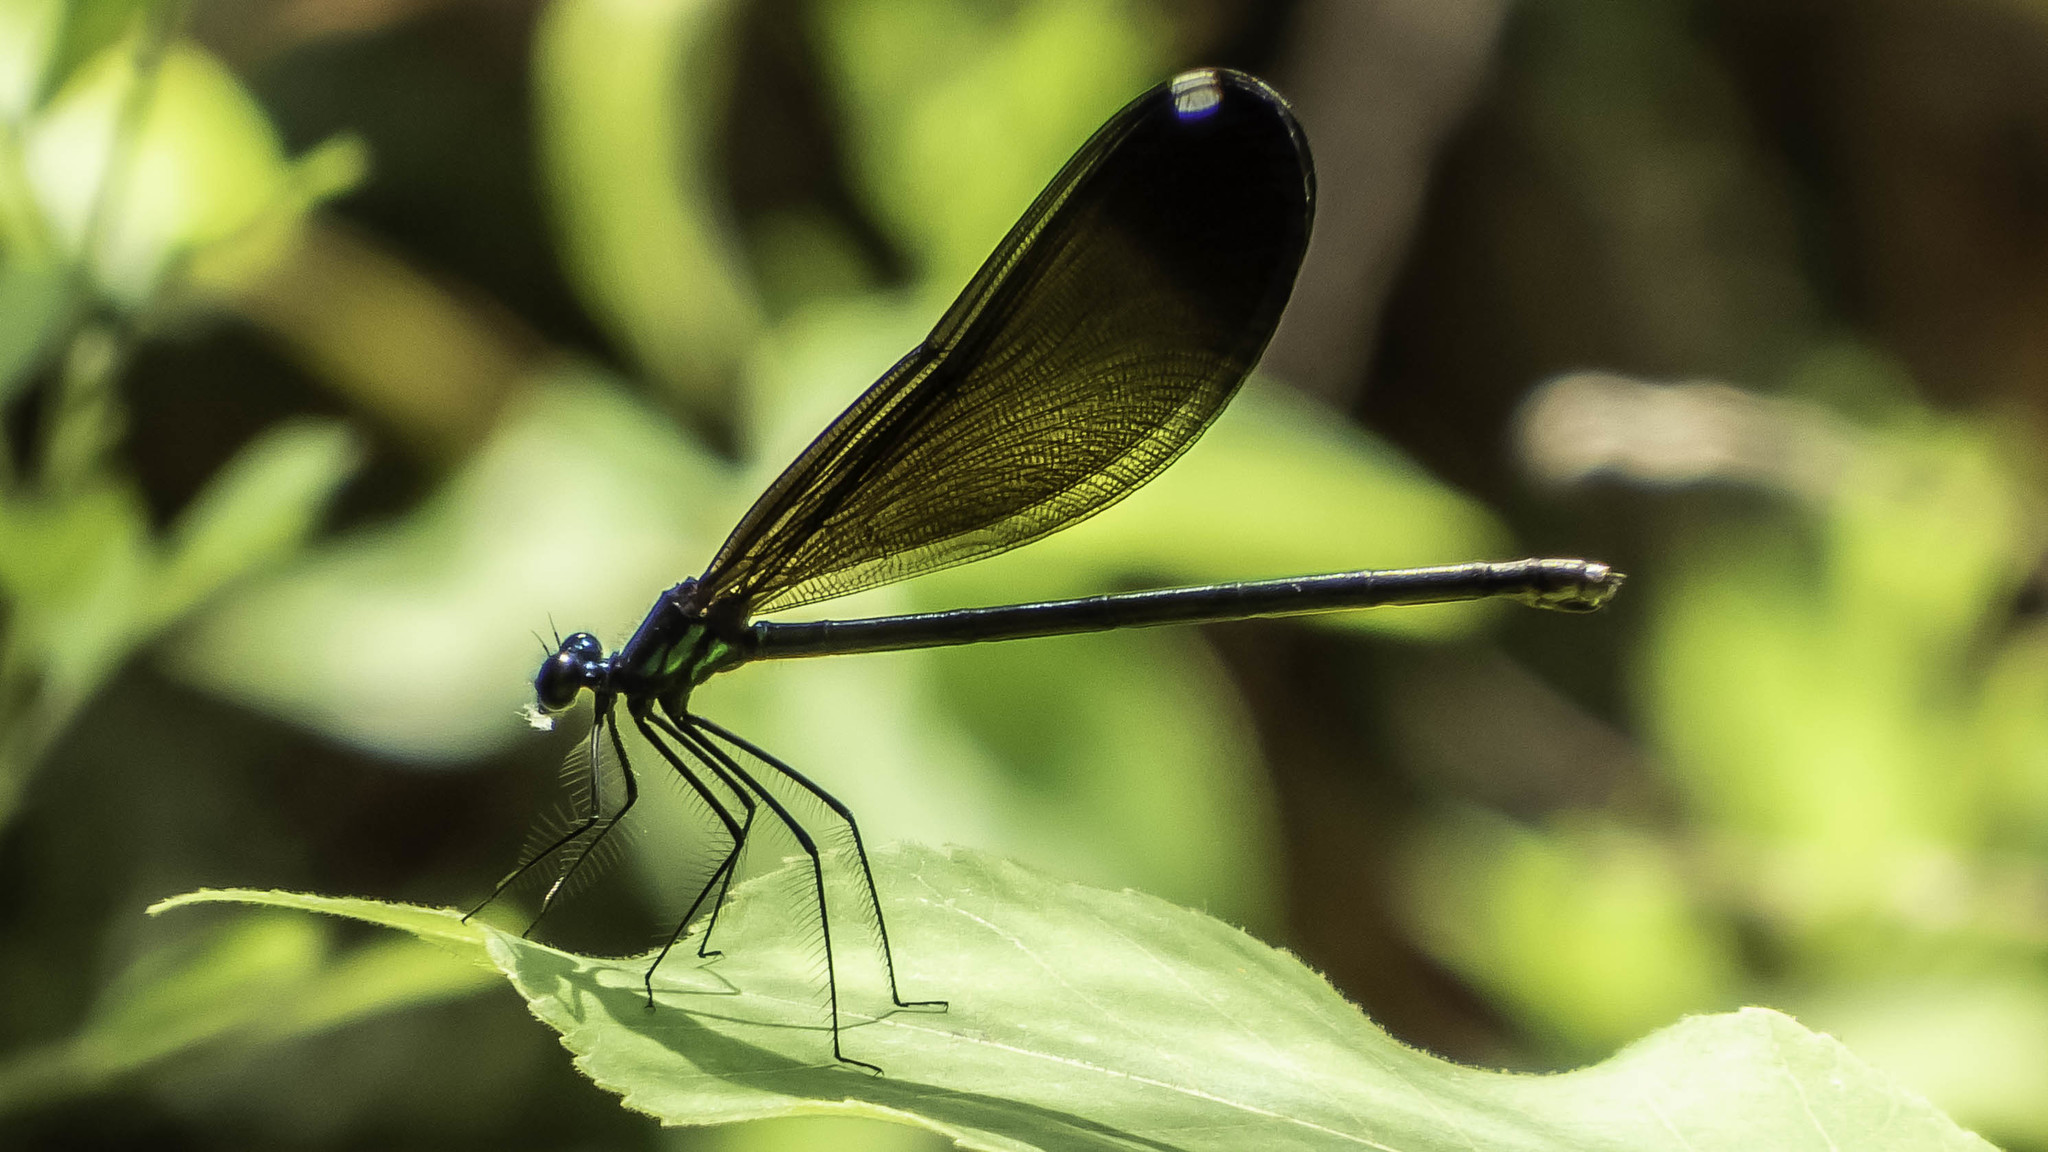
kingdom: Animalia
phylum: Arthropoda
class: Insecta
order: Odonata
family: Calopterygidae
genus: Calopteryx
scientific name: Calopteryx maculata
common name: Ebony jewelwing
